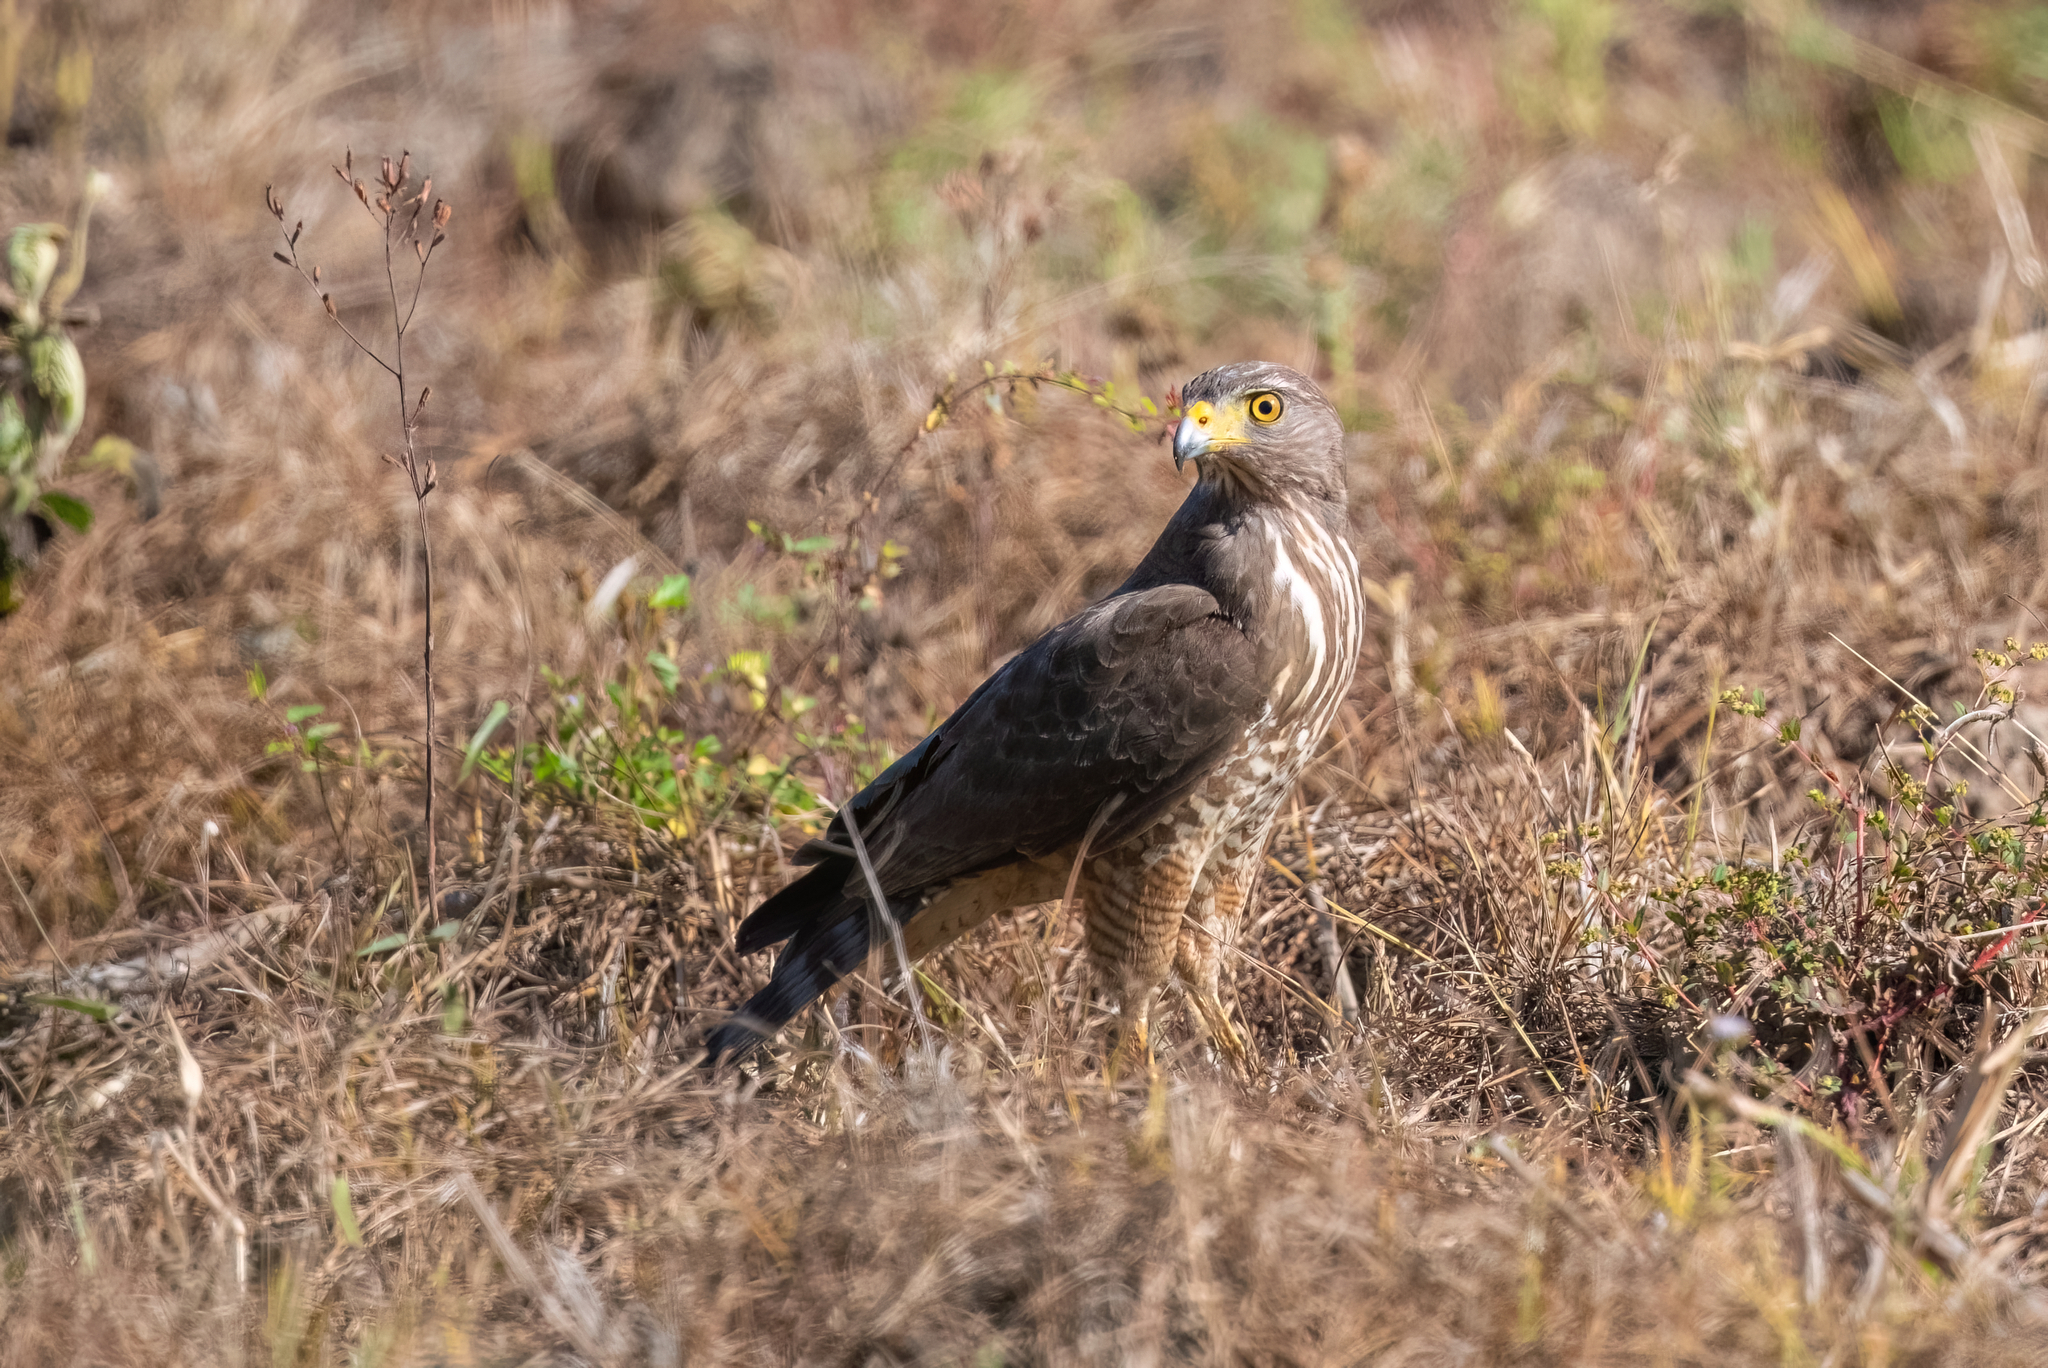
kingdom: Animalia
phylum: Chordata
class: Aves
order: Accipitriformes
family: Accipitridae
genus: Rupornis
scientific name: Rupornis magnirostris
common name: Roadside hawk
